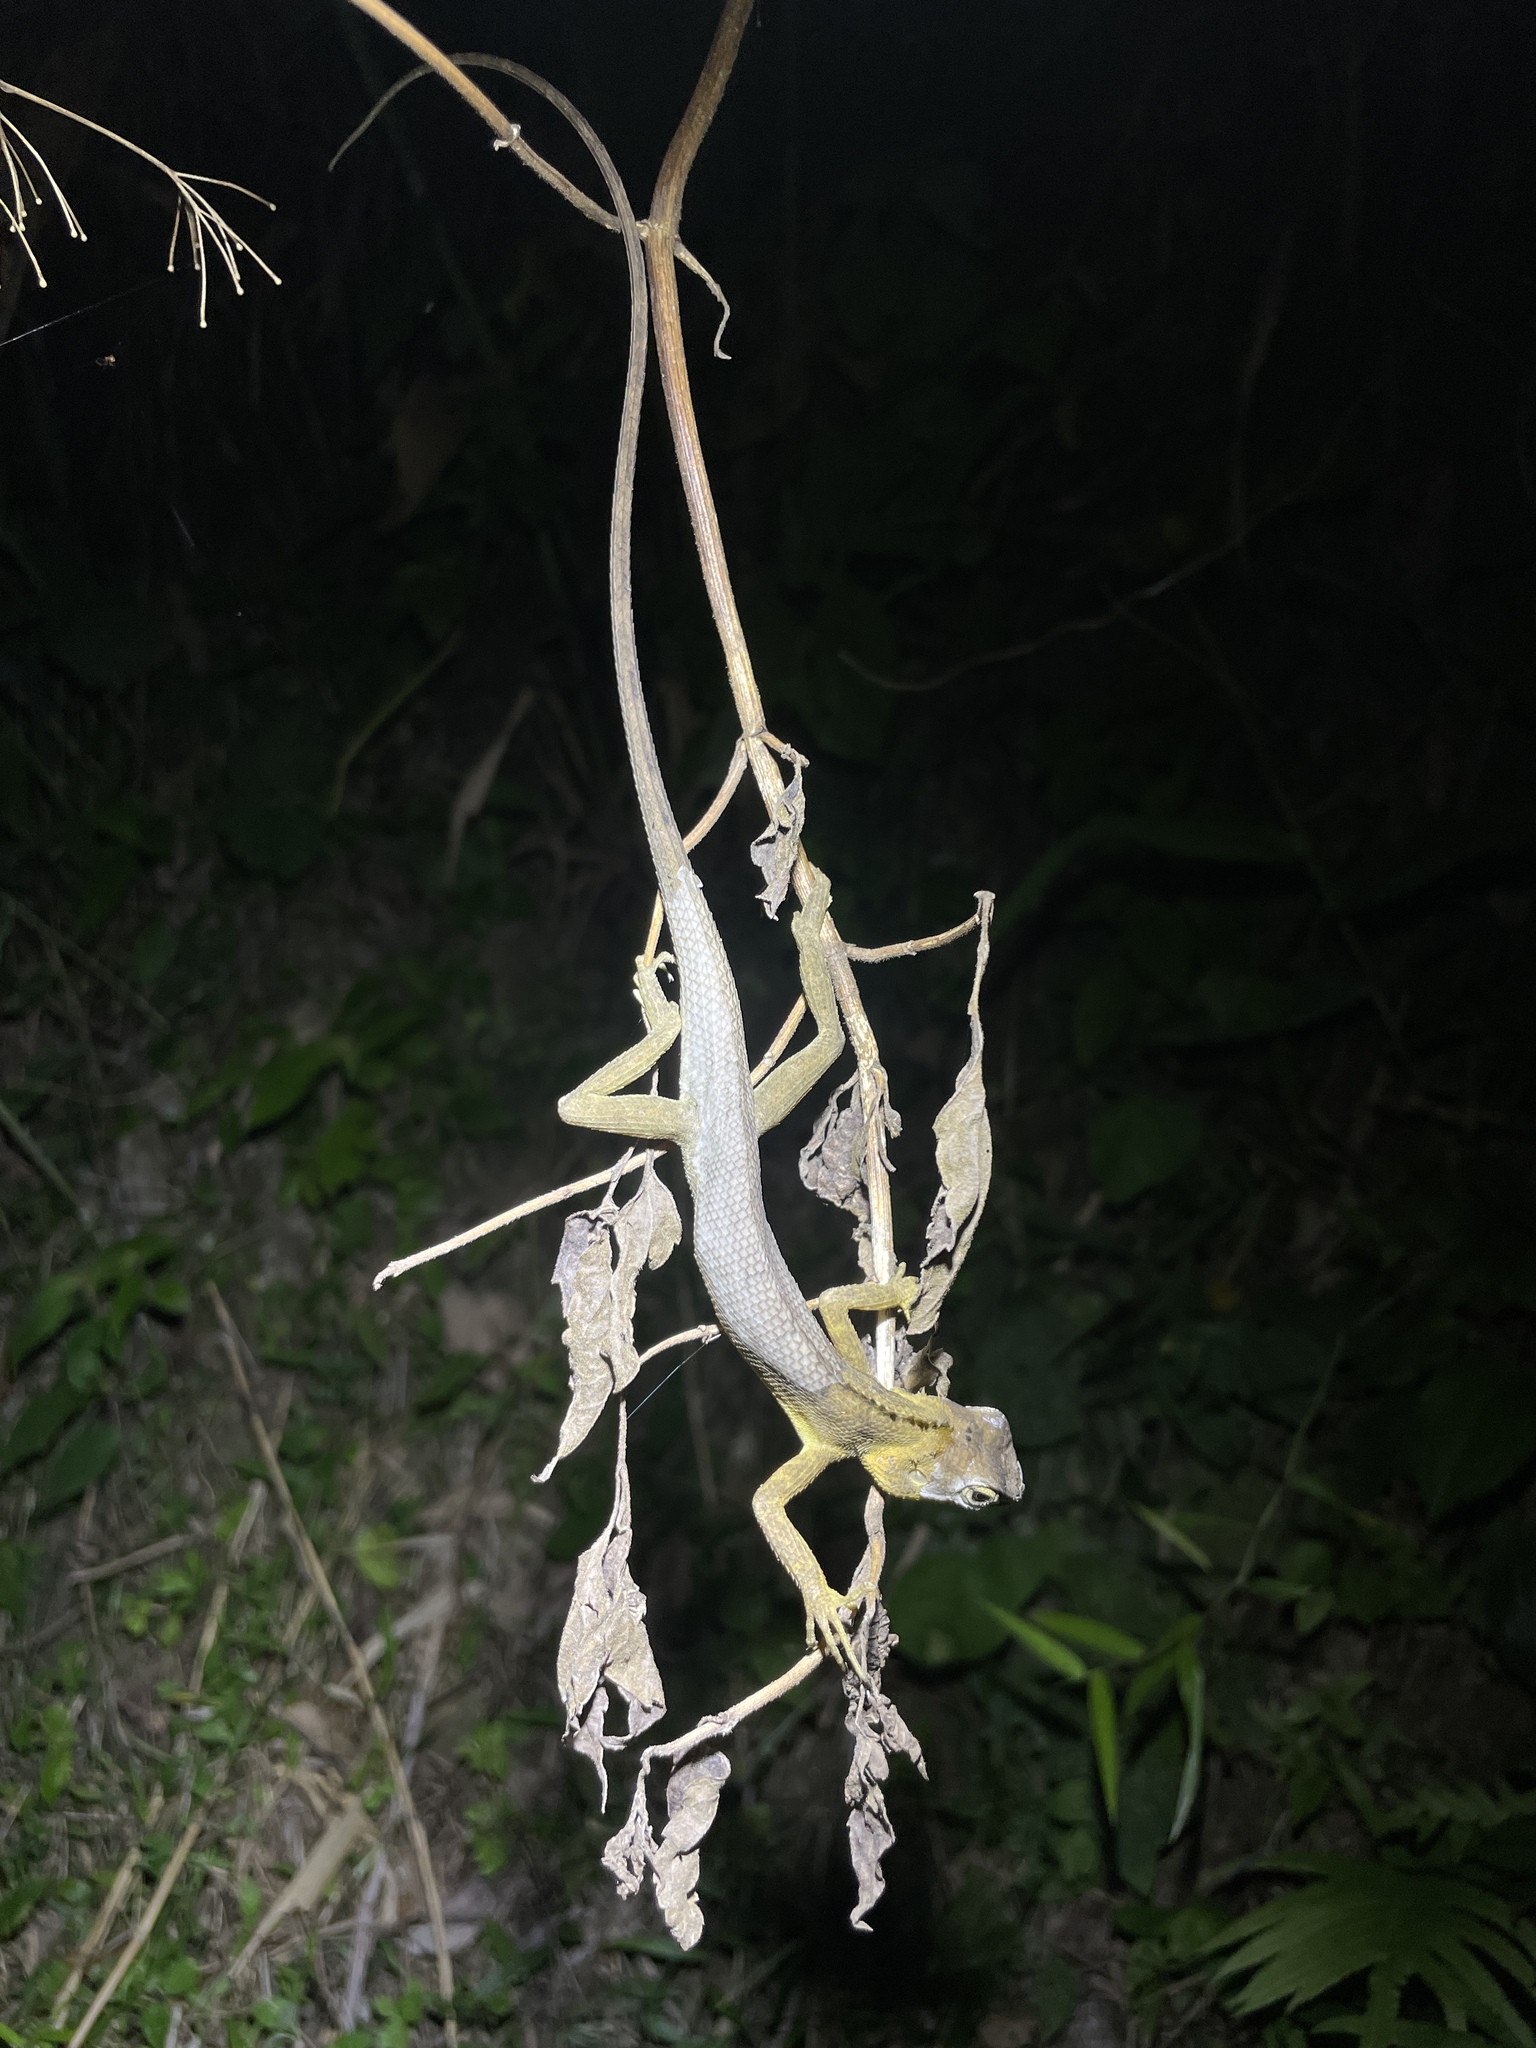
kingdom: Animalia
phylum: Chordata
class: Squamata
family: Agamidae
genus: Calotes
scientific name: Calotes versicolor
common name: Oriental garden lizard
